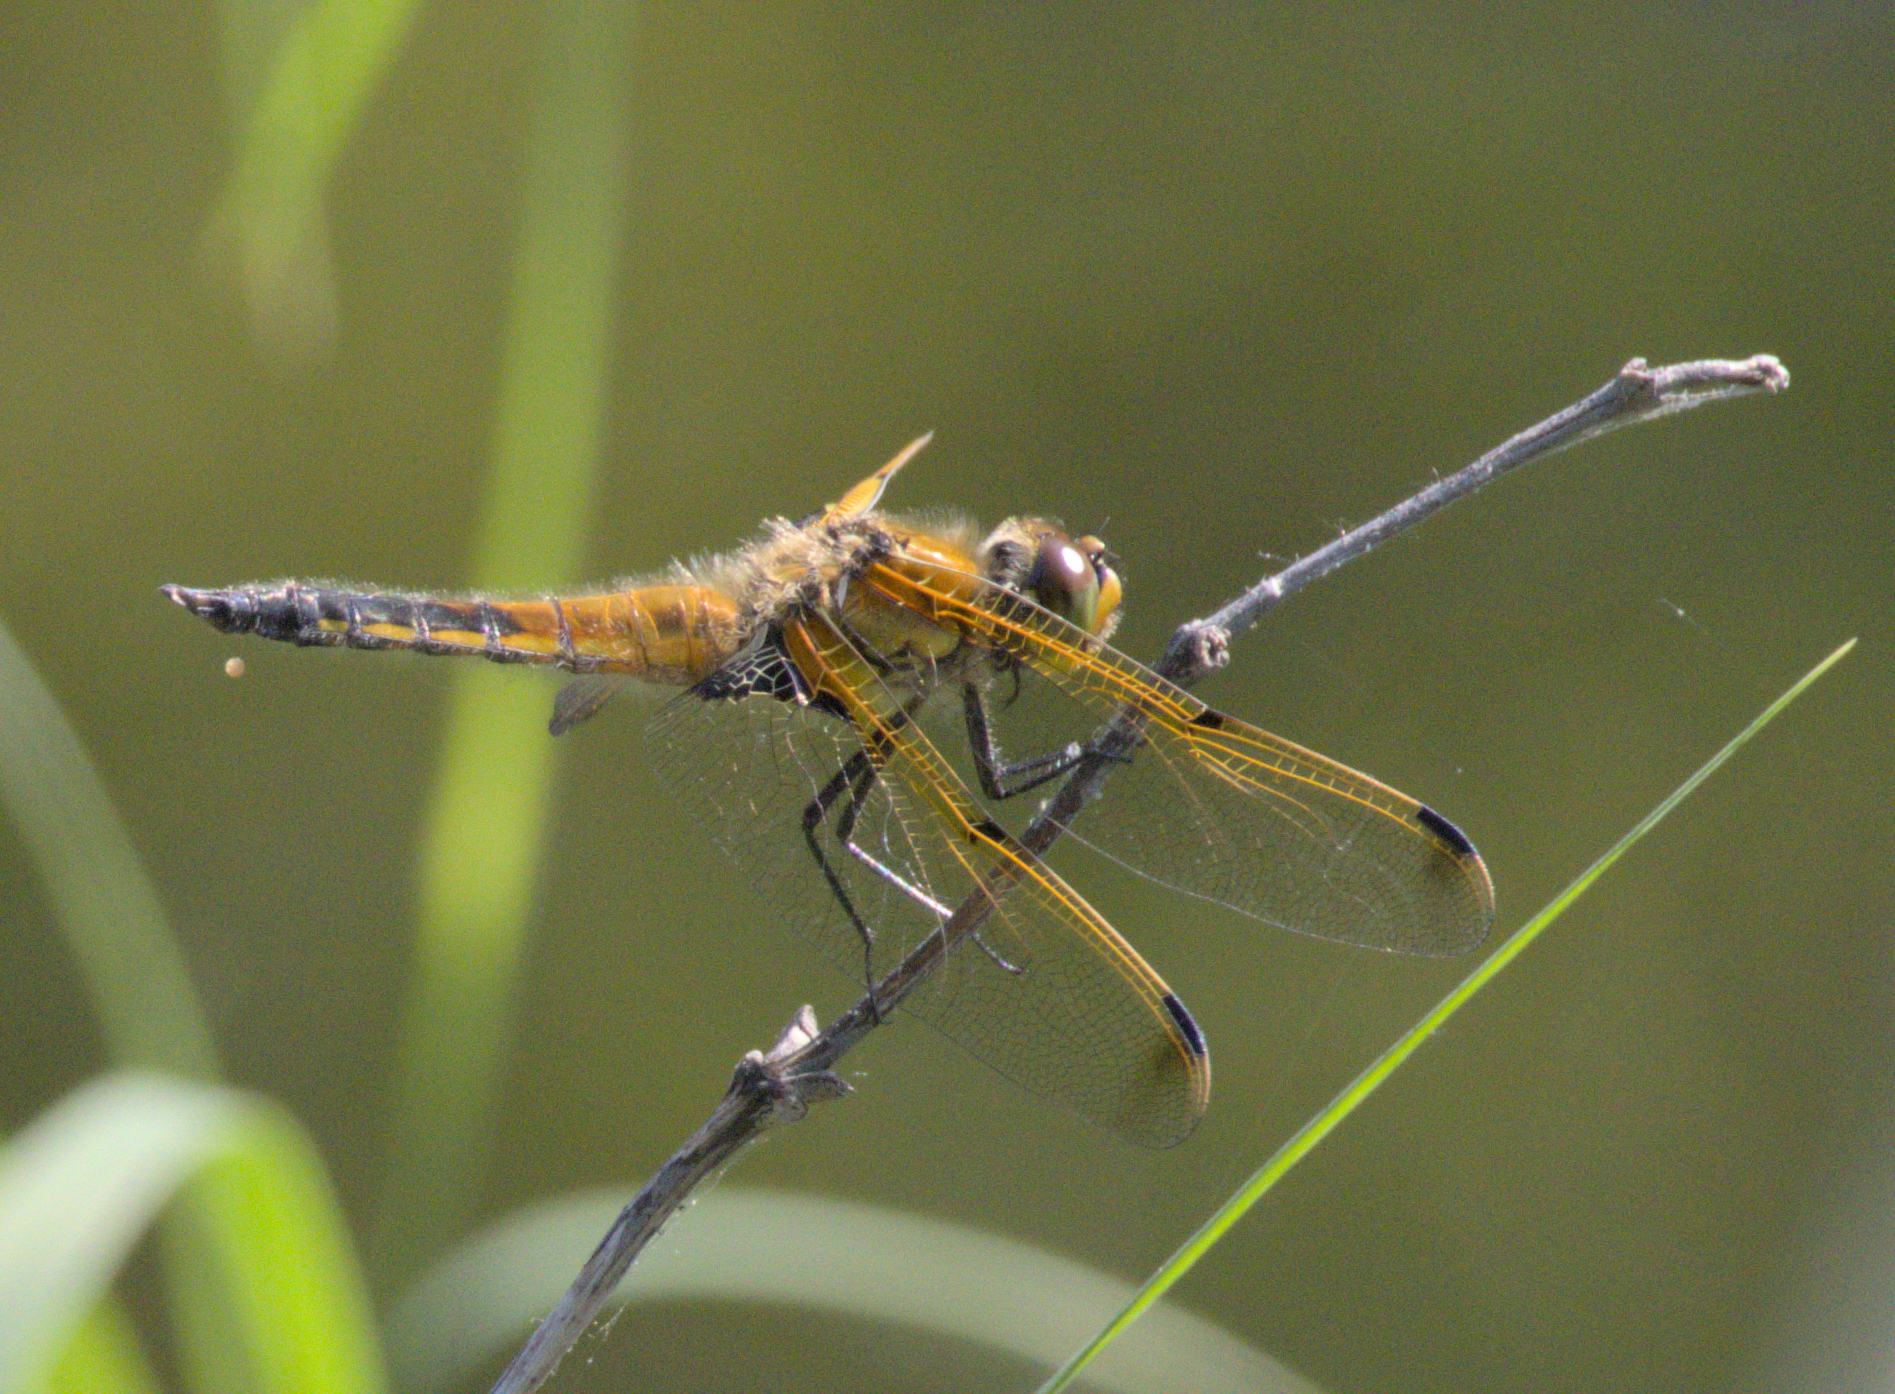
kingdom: Animalia
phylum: Arthropoda
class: Insecta
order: Odonata
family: Libellulidae
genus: Libellula
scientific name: Libellula quadrimaculata
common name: Four-spotted chaser
